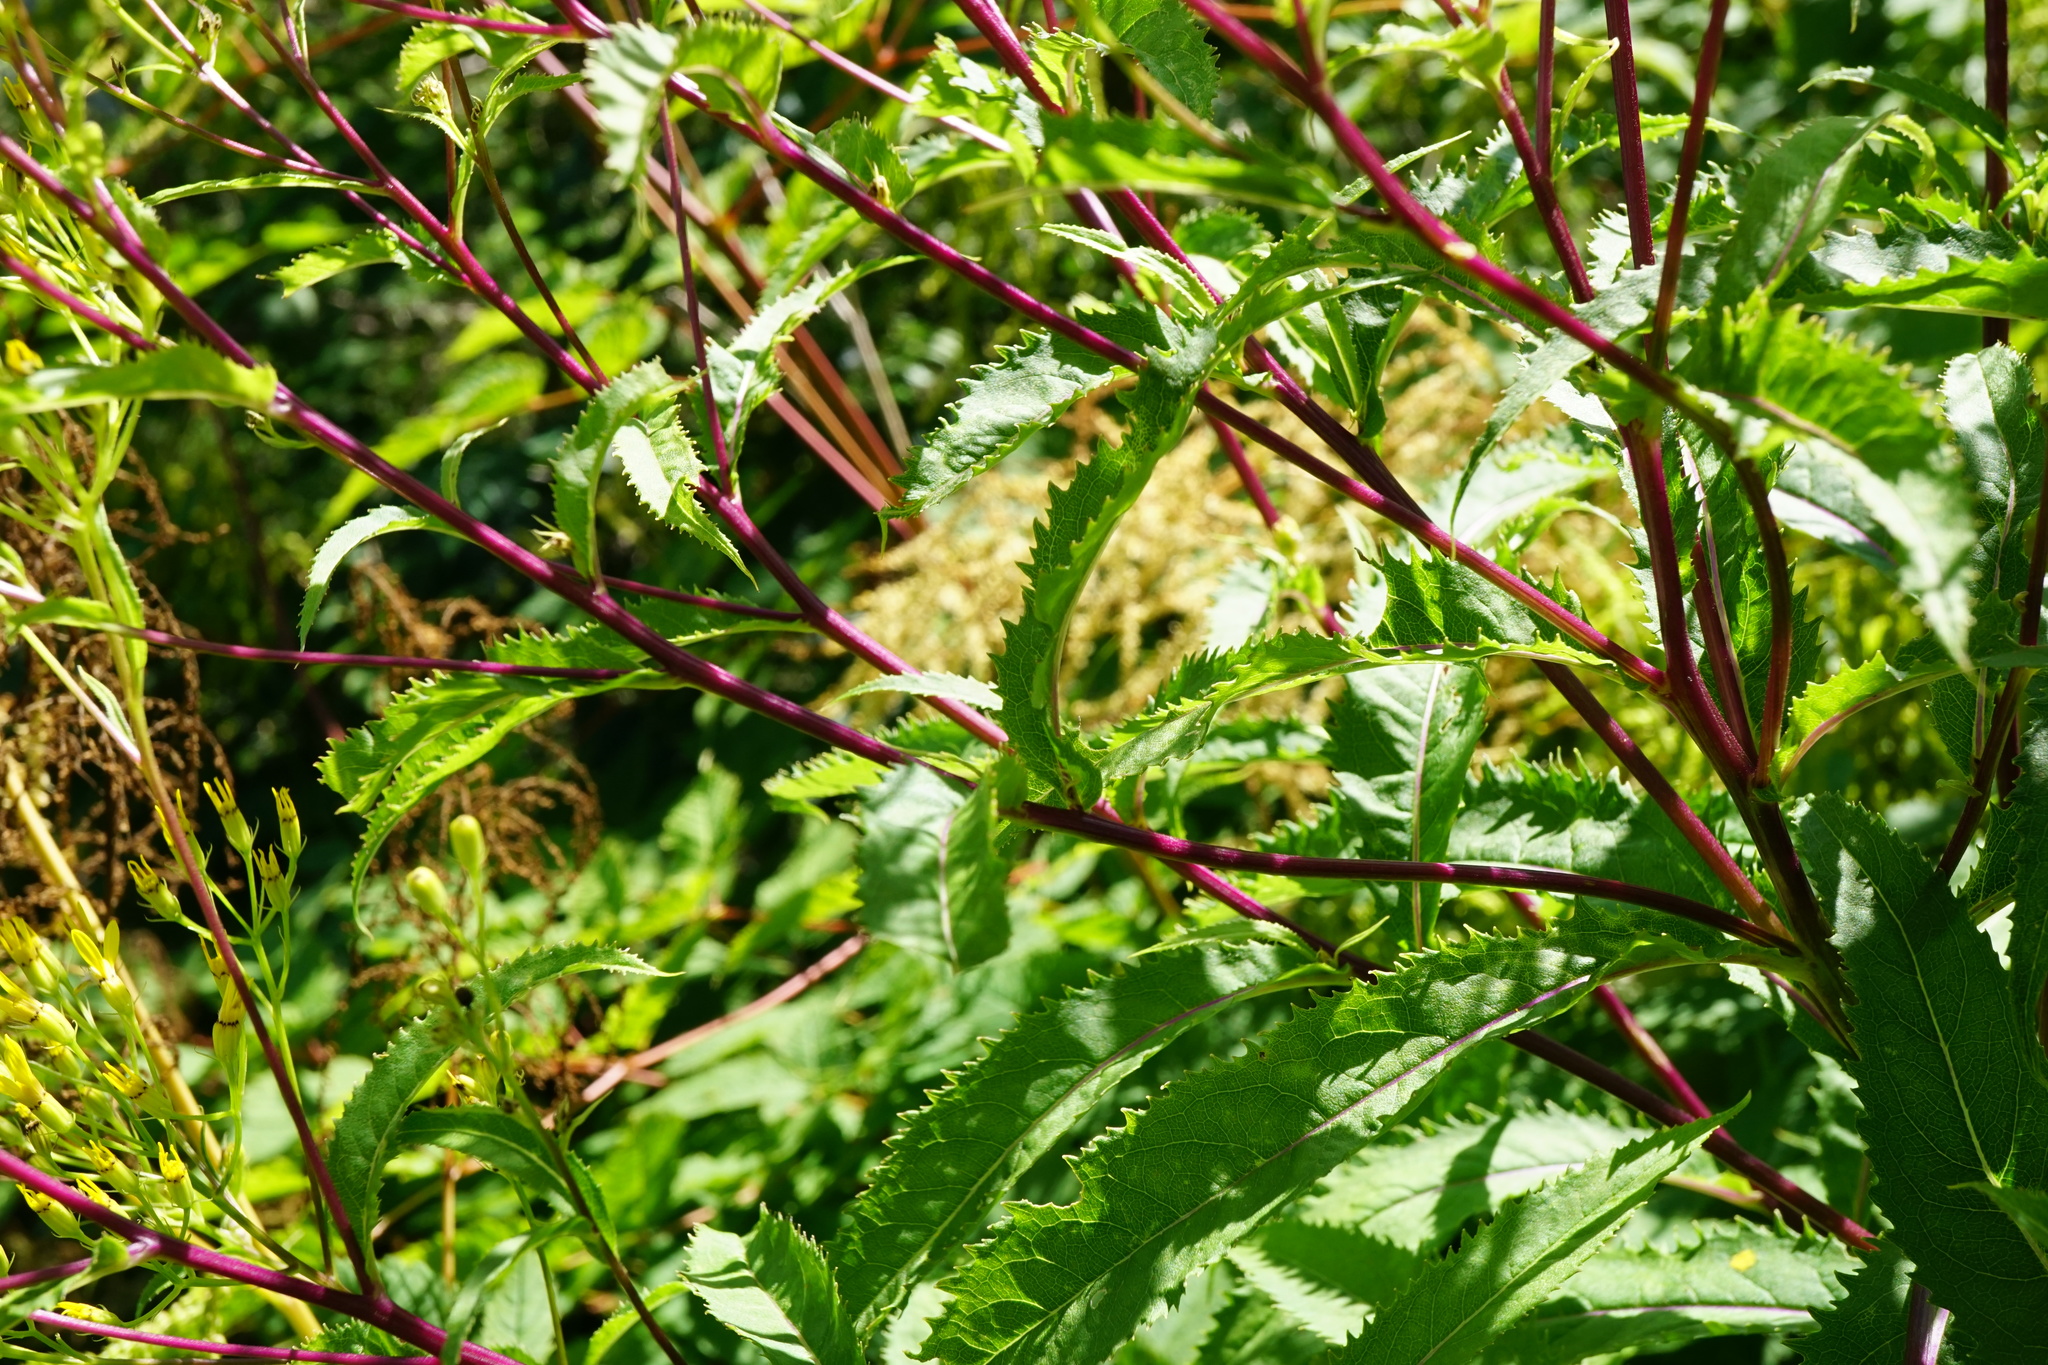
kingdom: Plantae
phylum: Tracheophyta
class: Magnoliopsida
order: Asterales
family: Asteraceae
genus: Senecio
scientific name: Senecio ovatus
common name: Wood ragwort
